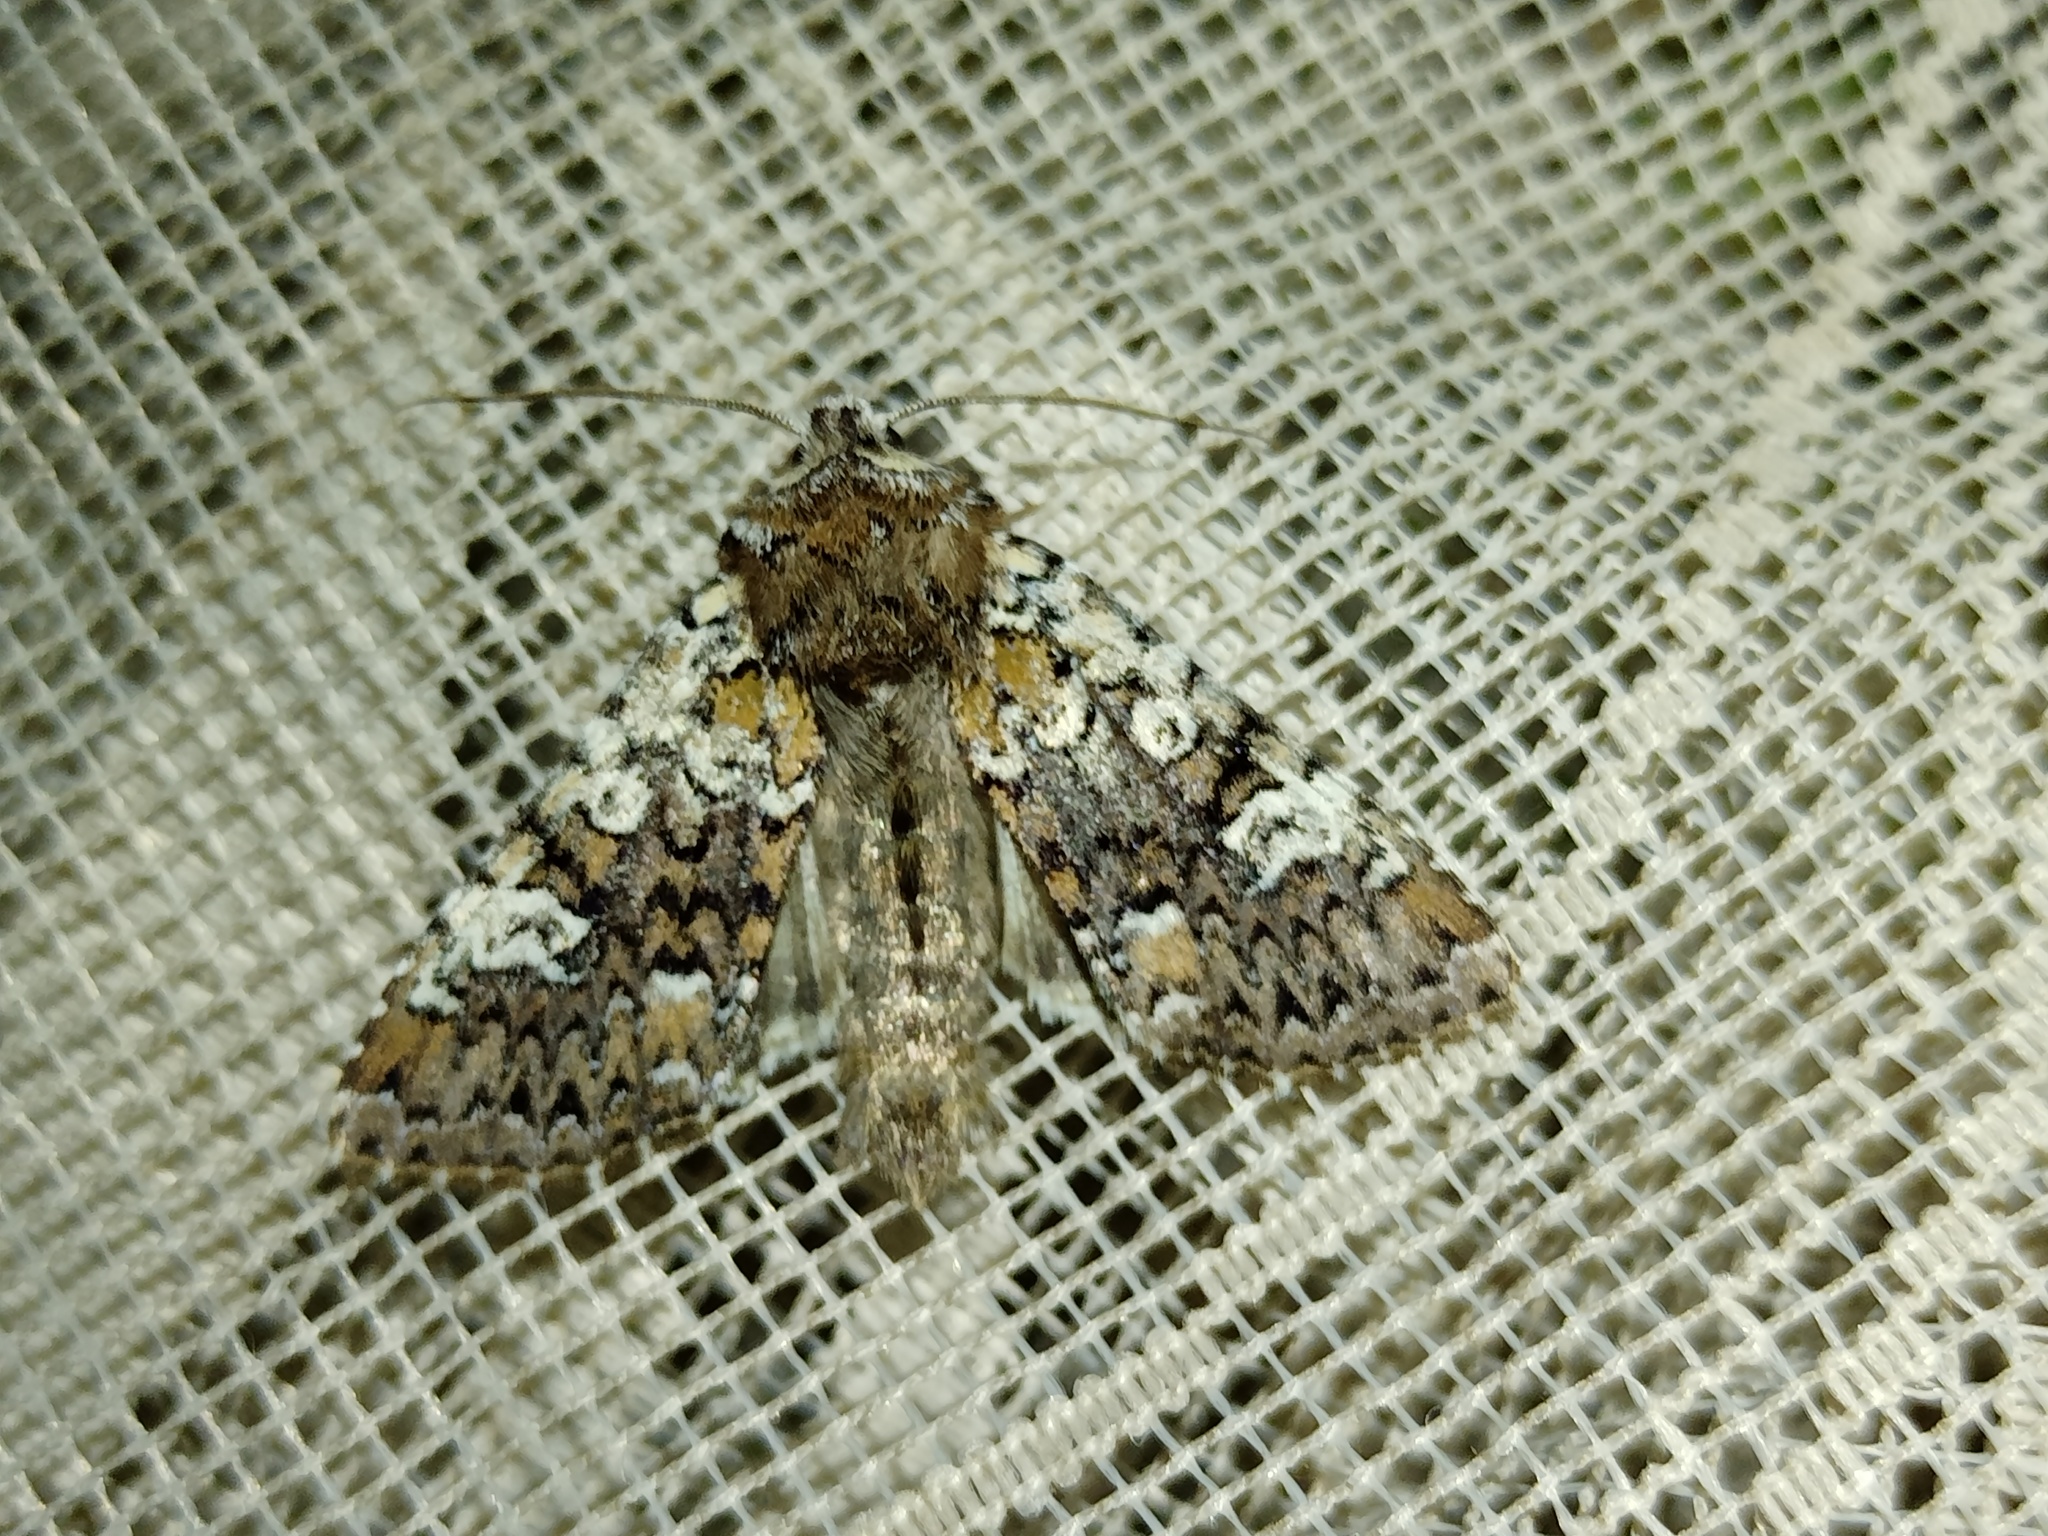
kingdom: Animalia
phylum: Arthropoda
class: Insecta
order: Lepidoptera
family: Noctuidae
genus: Crypsedra
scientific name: Crypsedra gemmea
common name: Cameo
